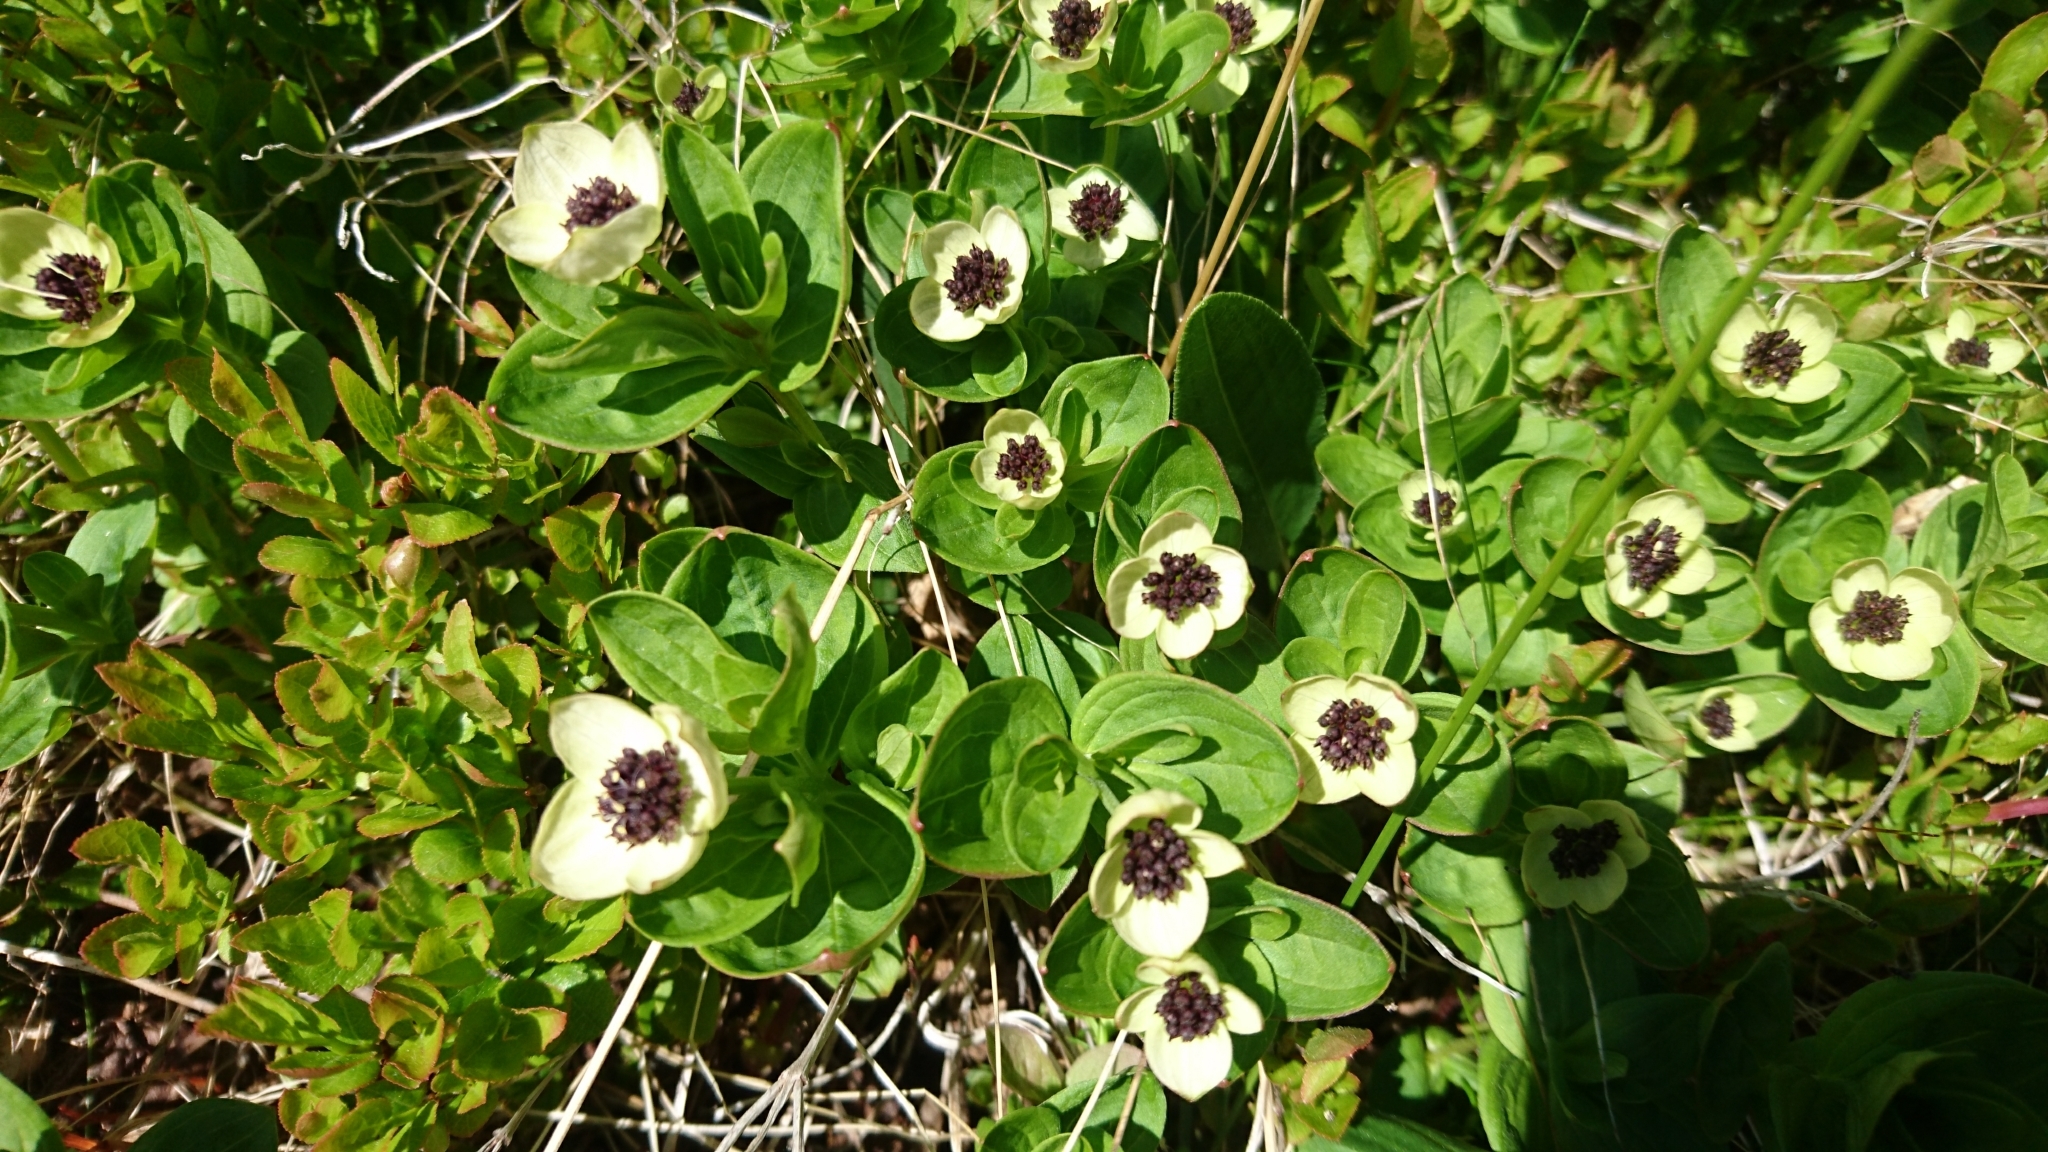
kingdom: Plantae
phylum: Tracheophyta
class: Magnoliopsida
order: Cornales
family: Cornaceae
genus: Cornus
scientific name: Cornus suecica
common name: Dwarf cornel
